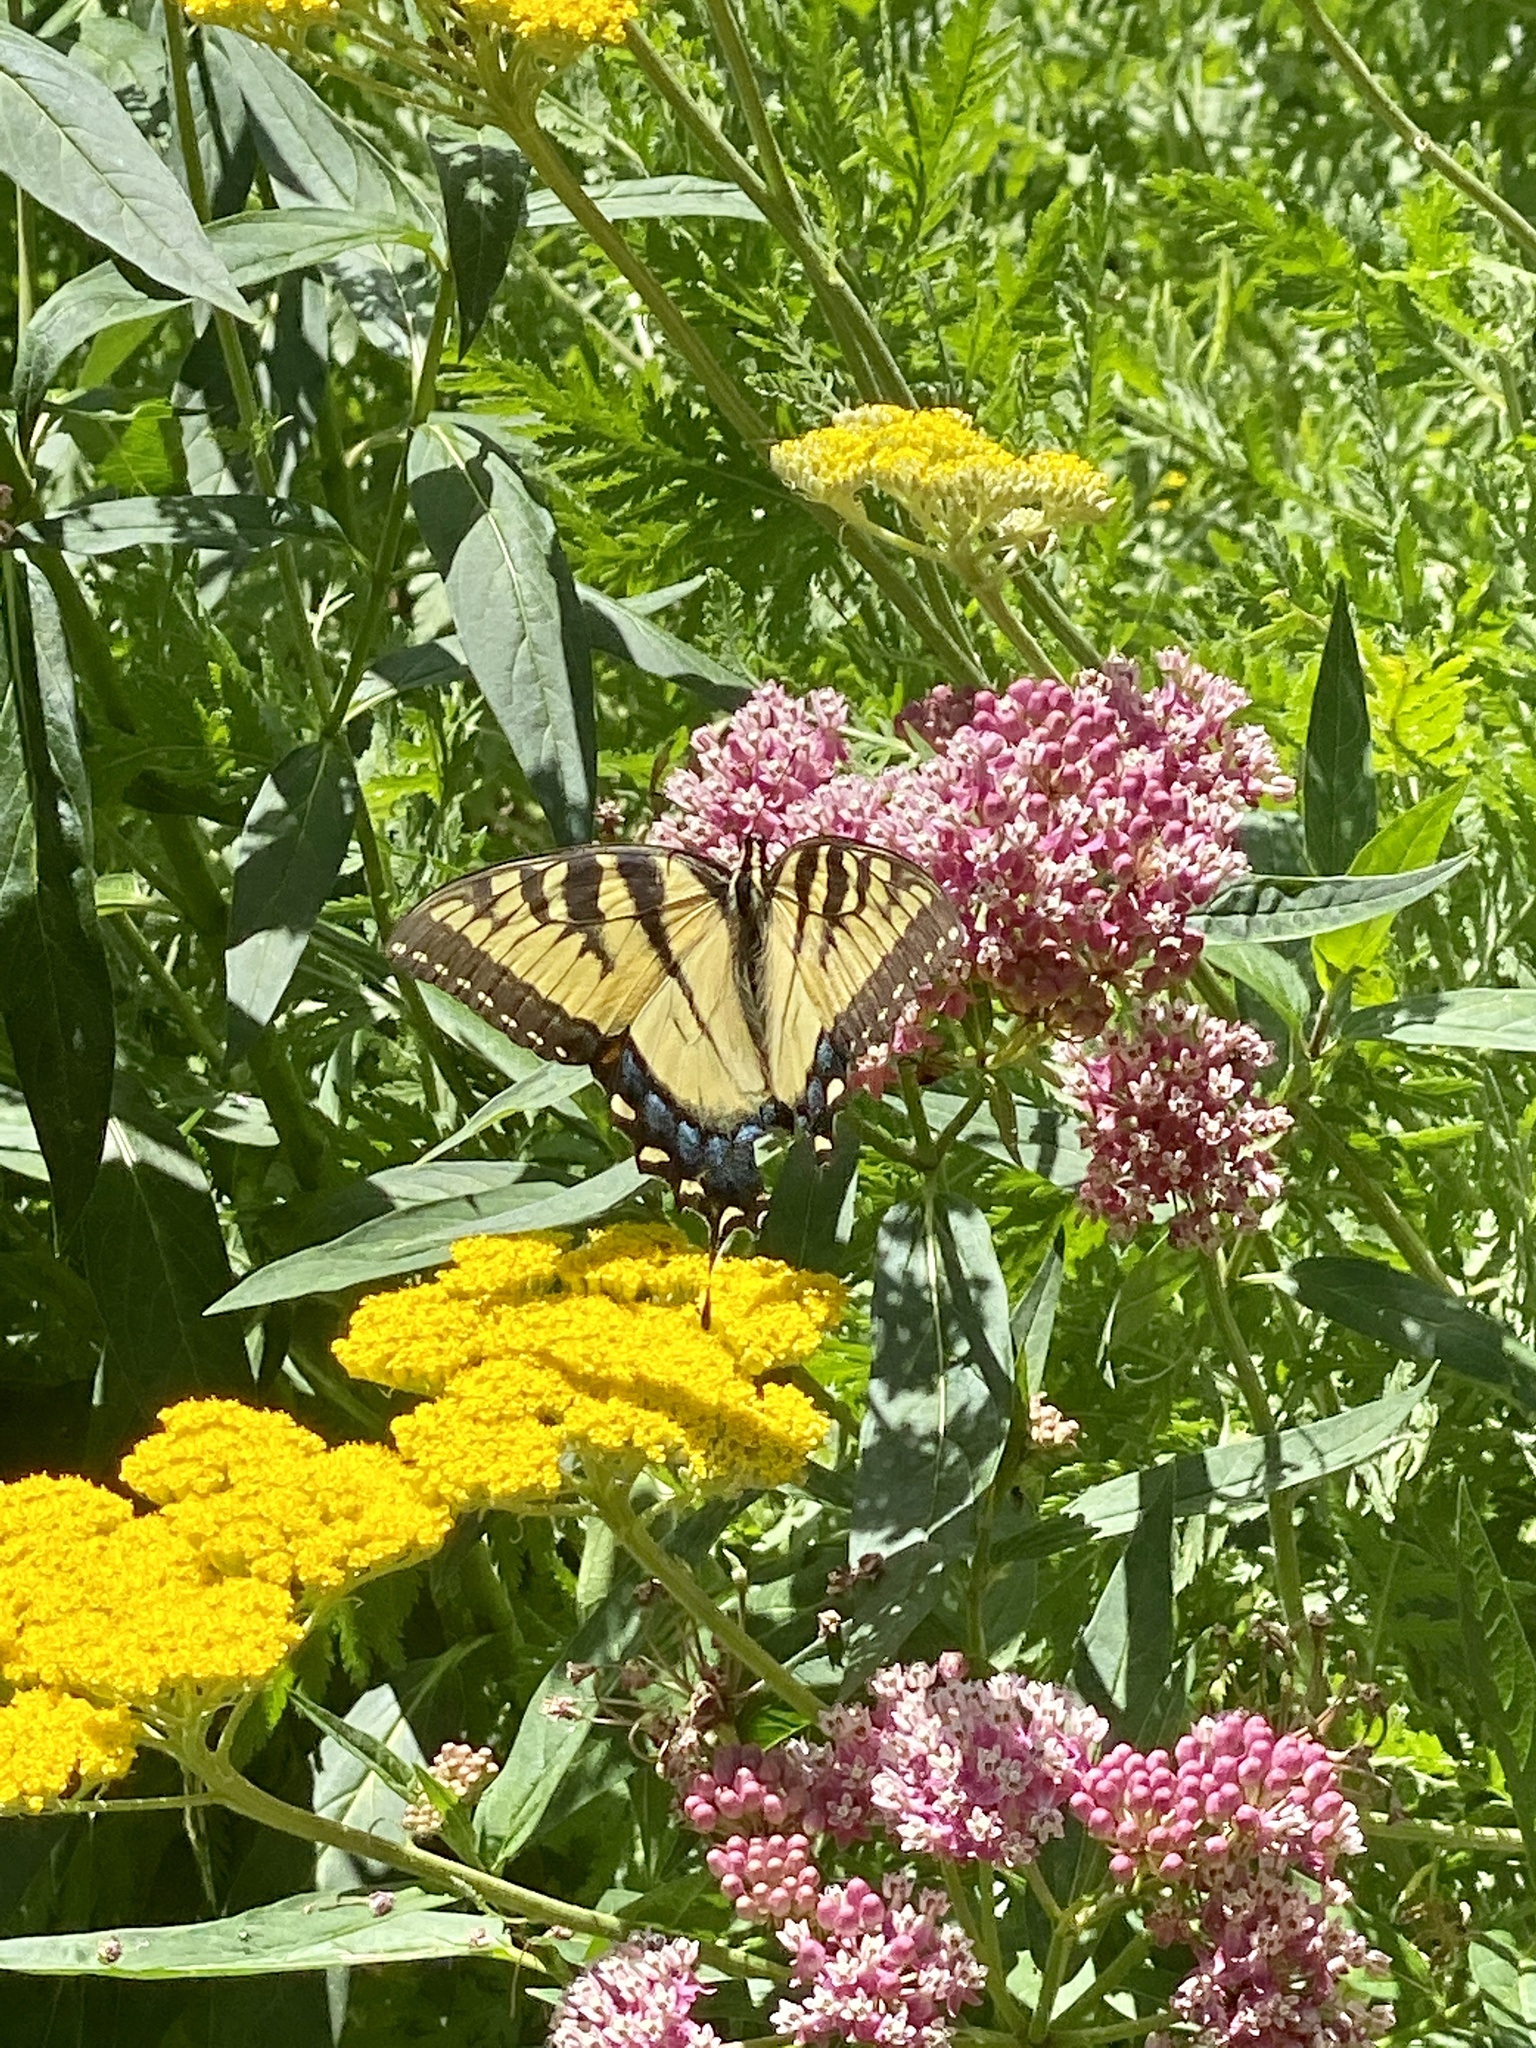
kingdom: Animalia
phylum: Arthropoda
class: Insecta
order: Lepidoptera
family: Papilionidae
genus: Papilio
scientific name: Papilio glaucus
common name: Tiger swallowtail
